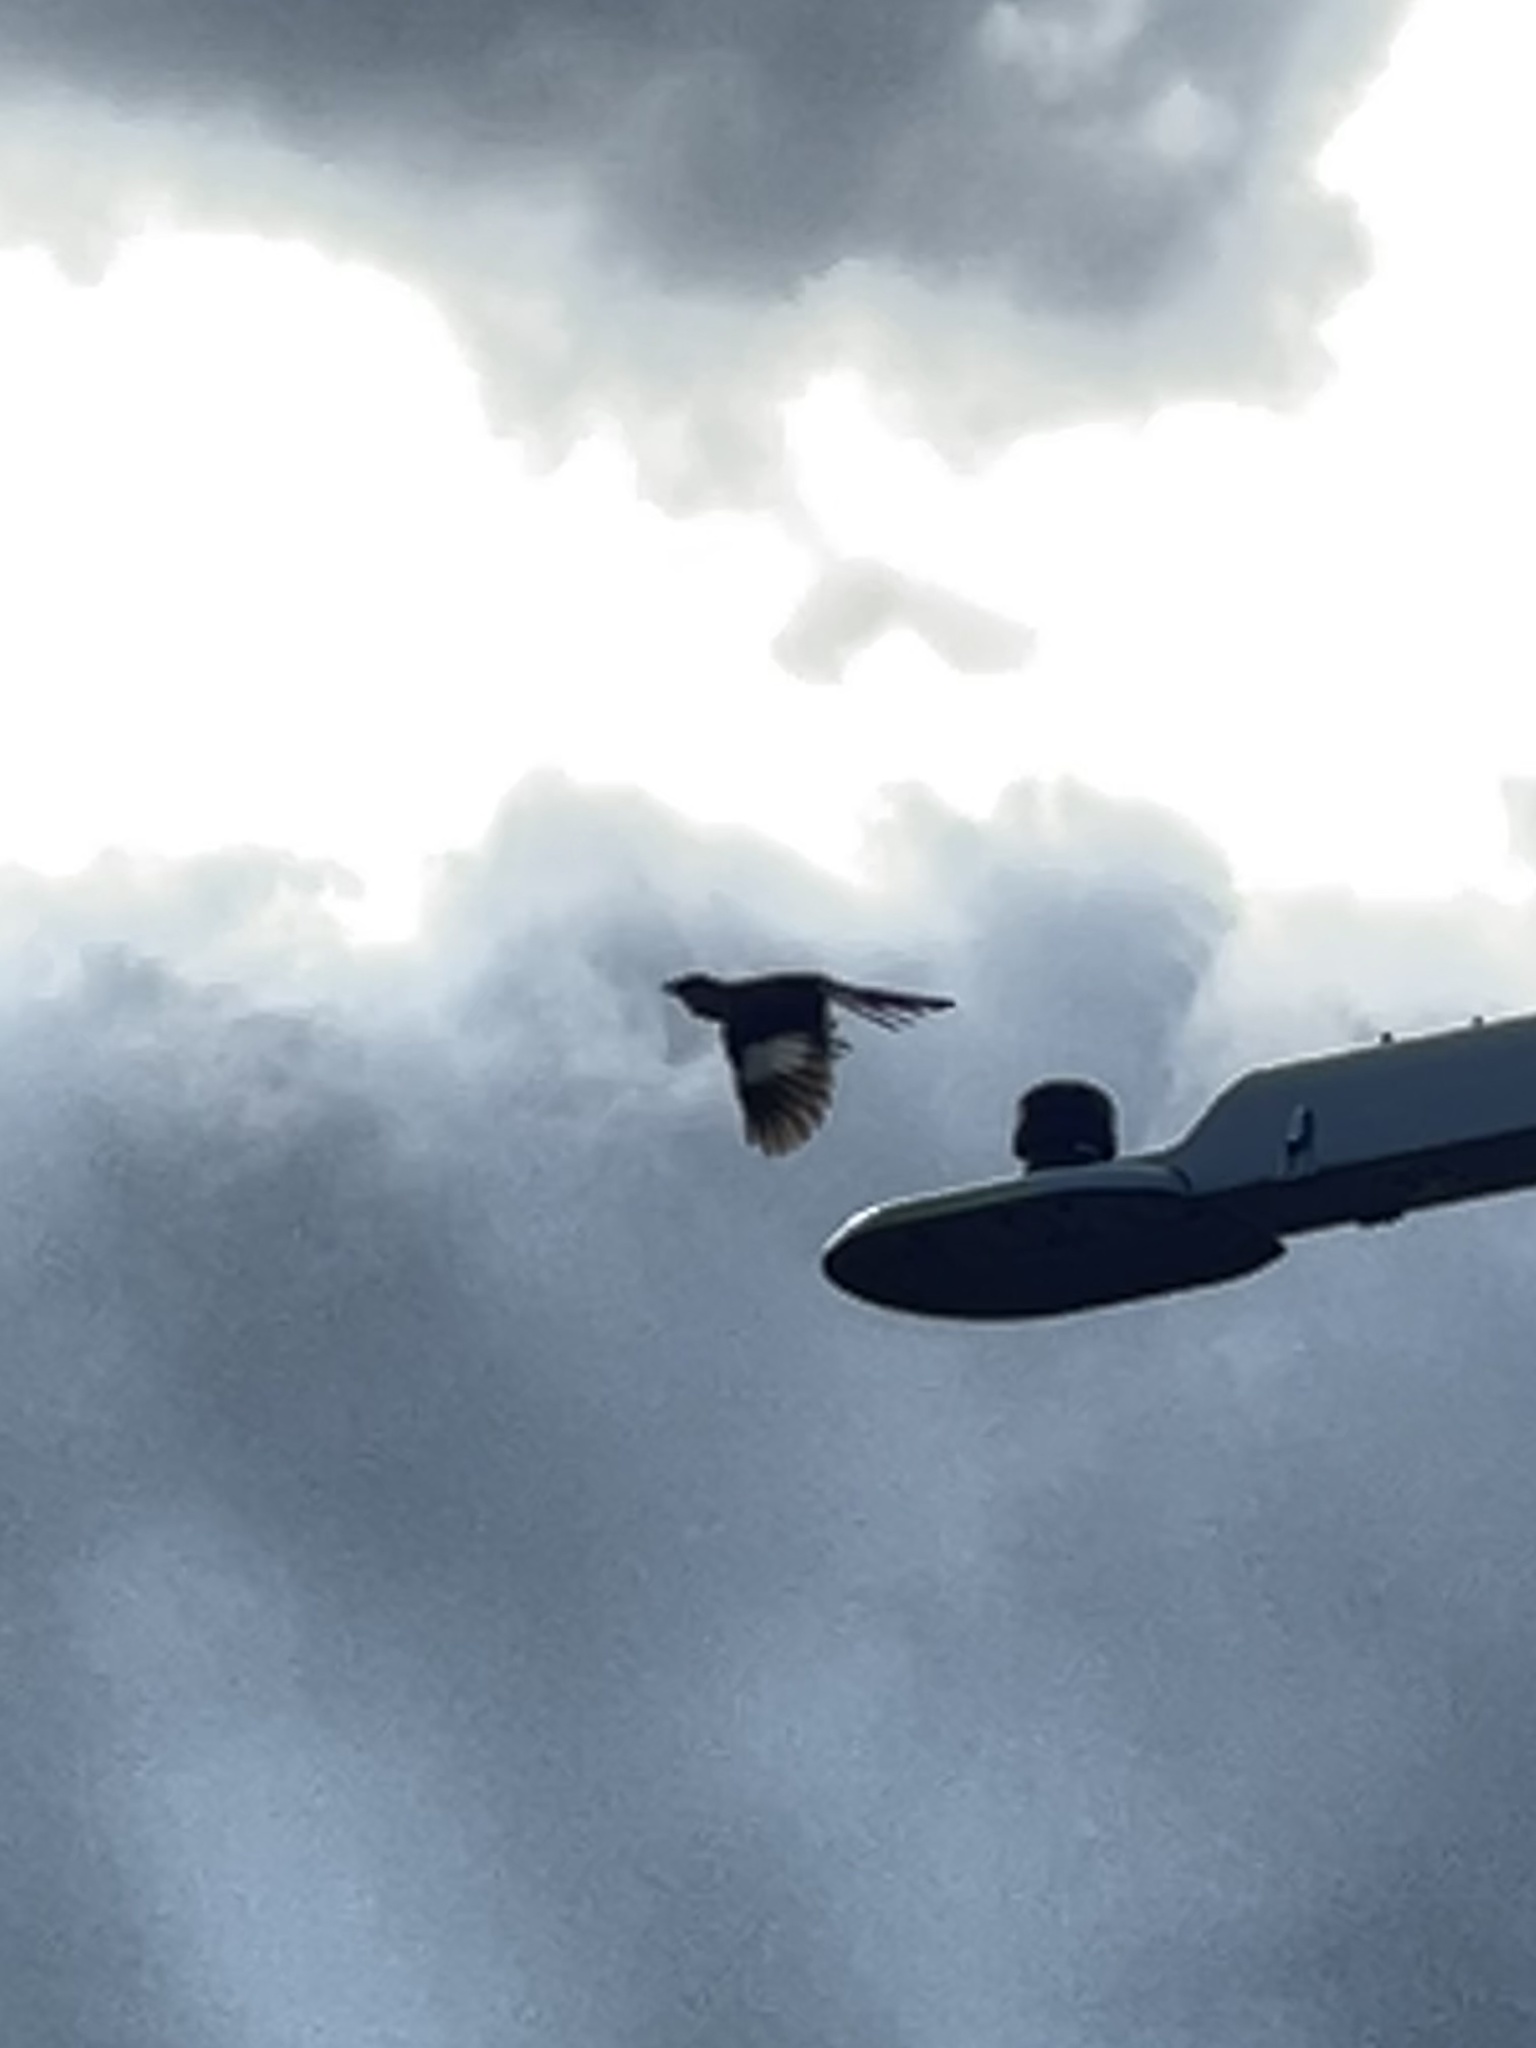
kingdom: Animalia
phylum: Chordata
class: Aves
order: Passeriformes
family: Mimidae
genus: Mimus
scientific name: Mimus polyglottos
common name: Northern mockingbird
